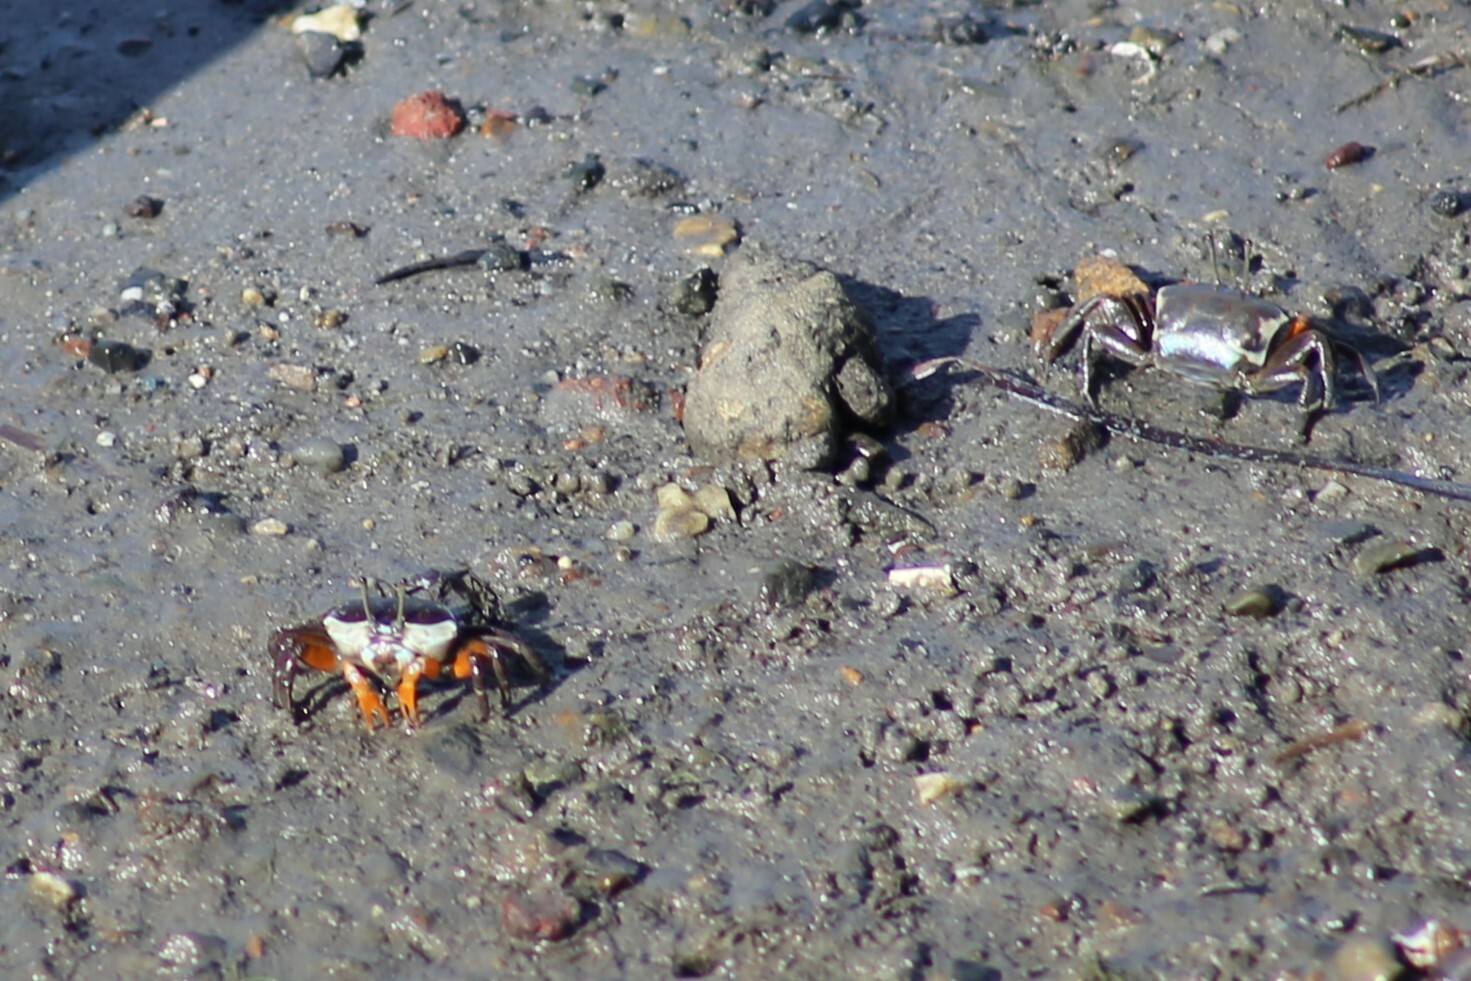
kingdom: Animalia
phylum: Arthropoda
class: Malacostraca
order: Decapoda
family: Ocypodidae
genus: Gelasimus
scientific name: Gelasimus vomeris
